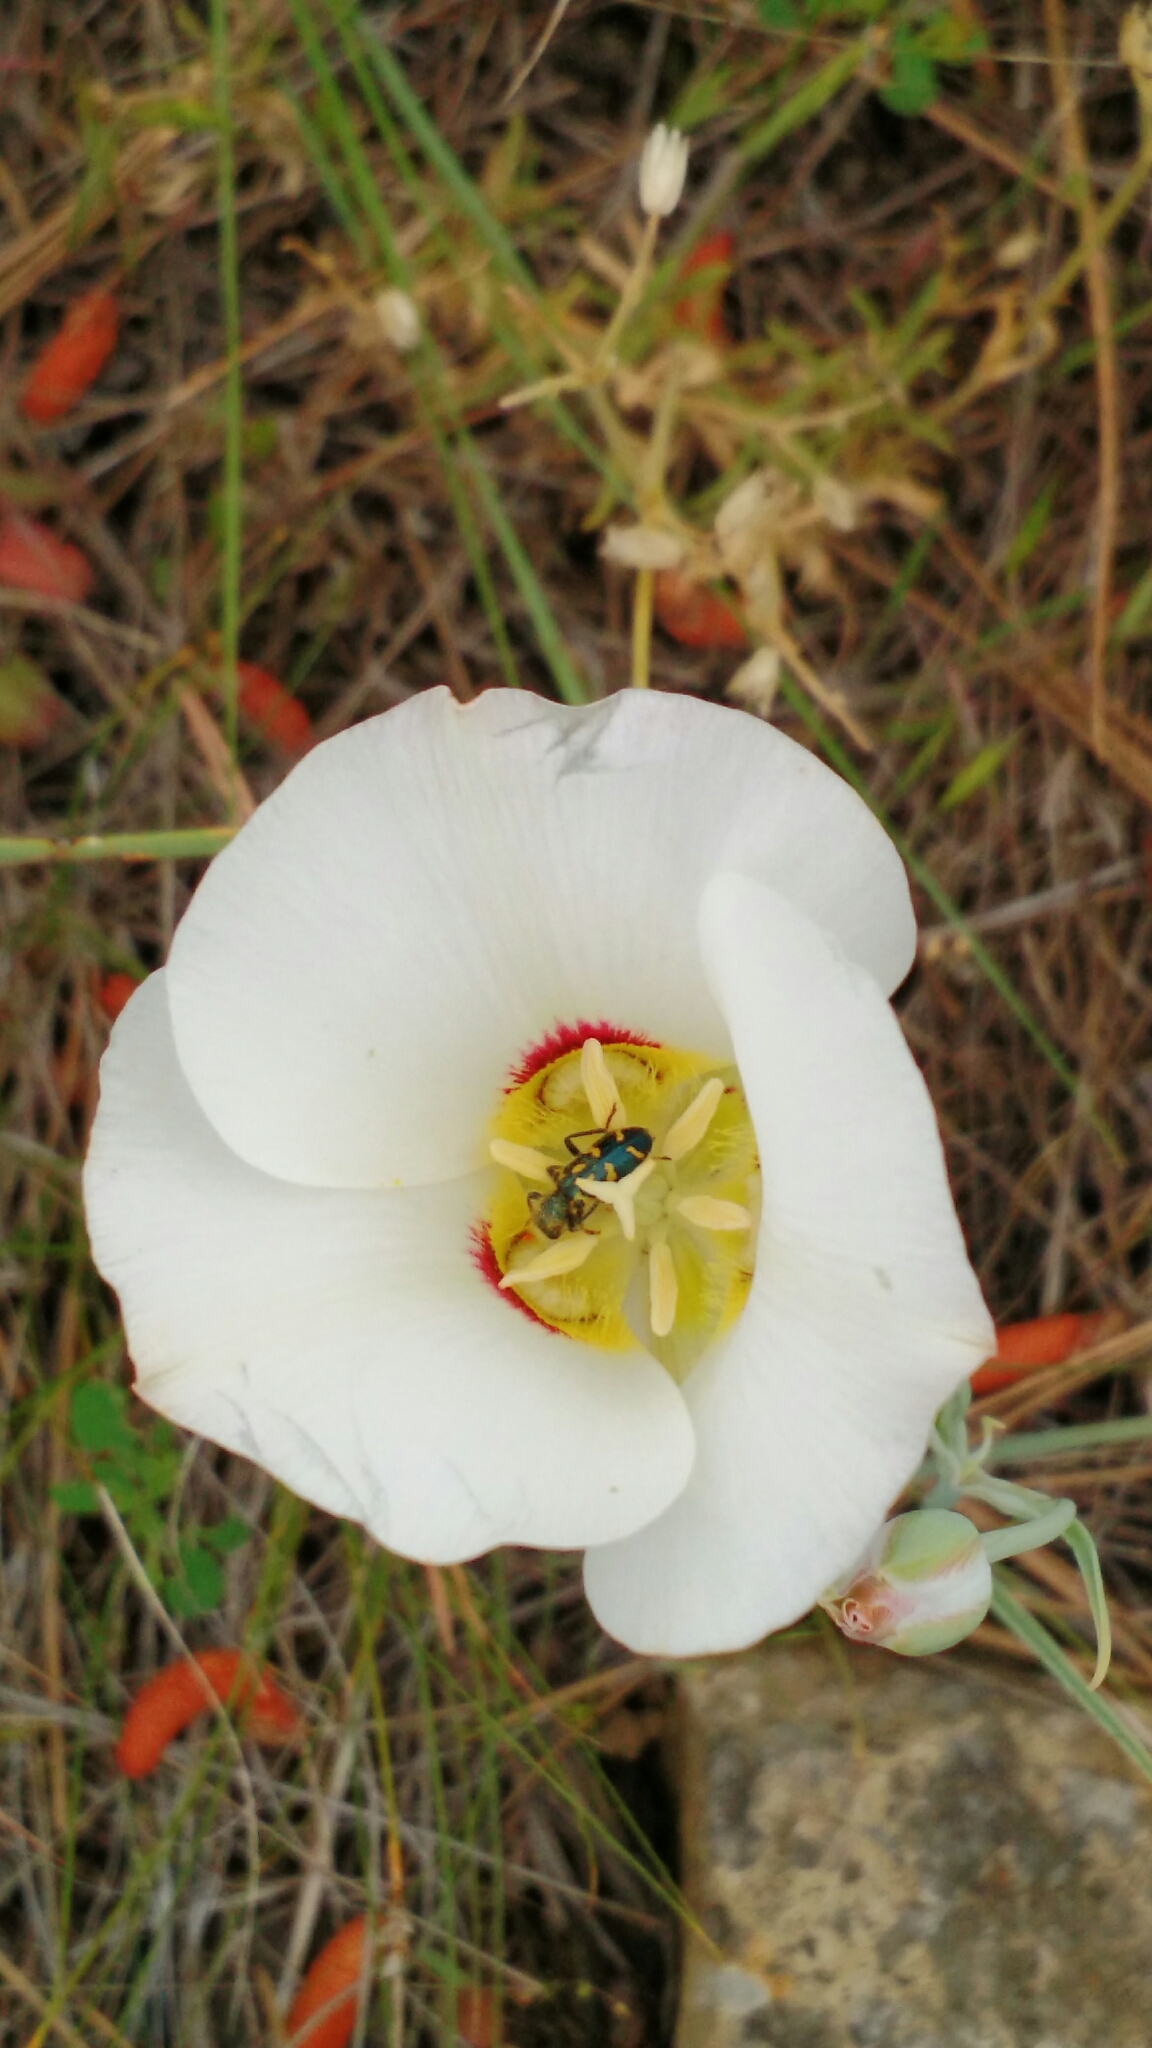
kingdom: Animalia
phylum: Arthropoda
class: Insecta
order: Coleoptera
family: Cleridae
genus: Trichodes
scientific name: Trichodes ornatus
